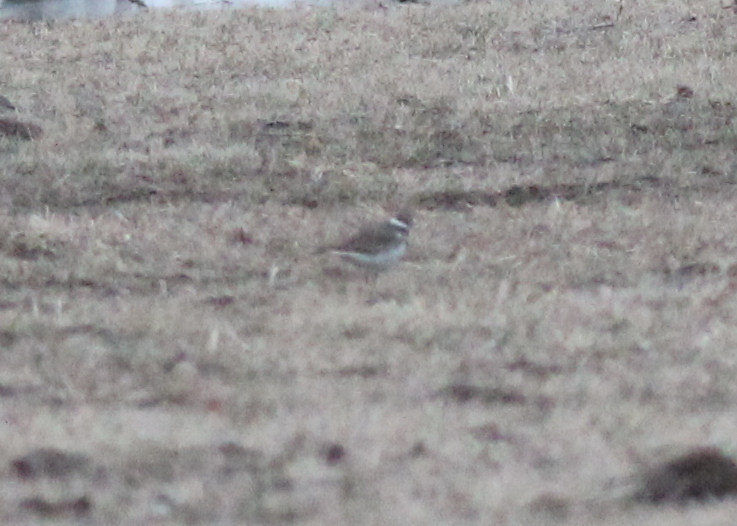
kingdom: Animalia
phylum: Chordata
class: Aves
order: Charadriiformes
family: Charadriidae
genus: Charadrius
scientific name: Charadrius vociferus
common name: Killdeer
